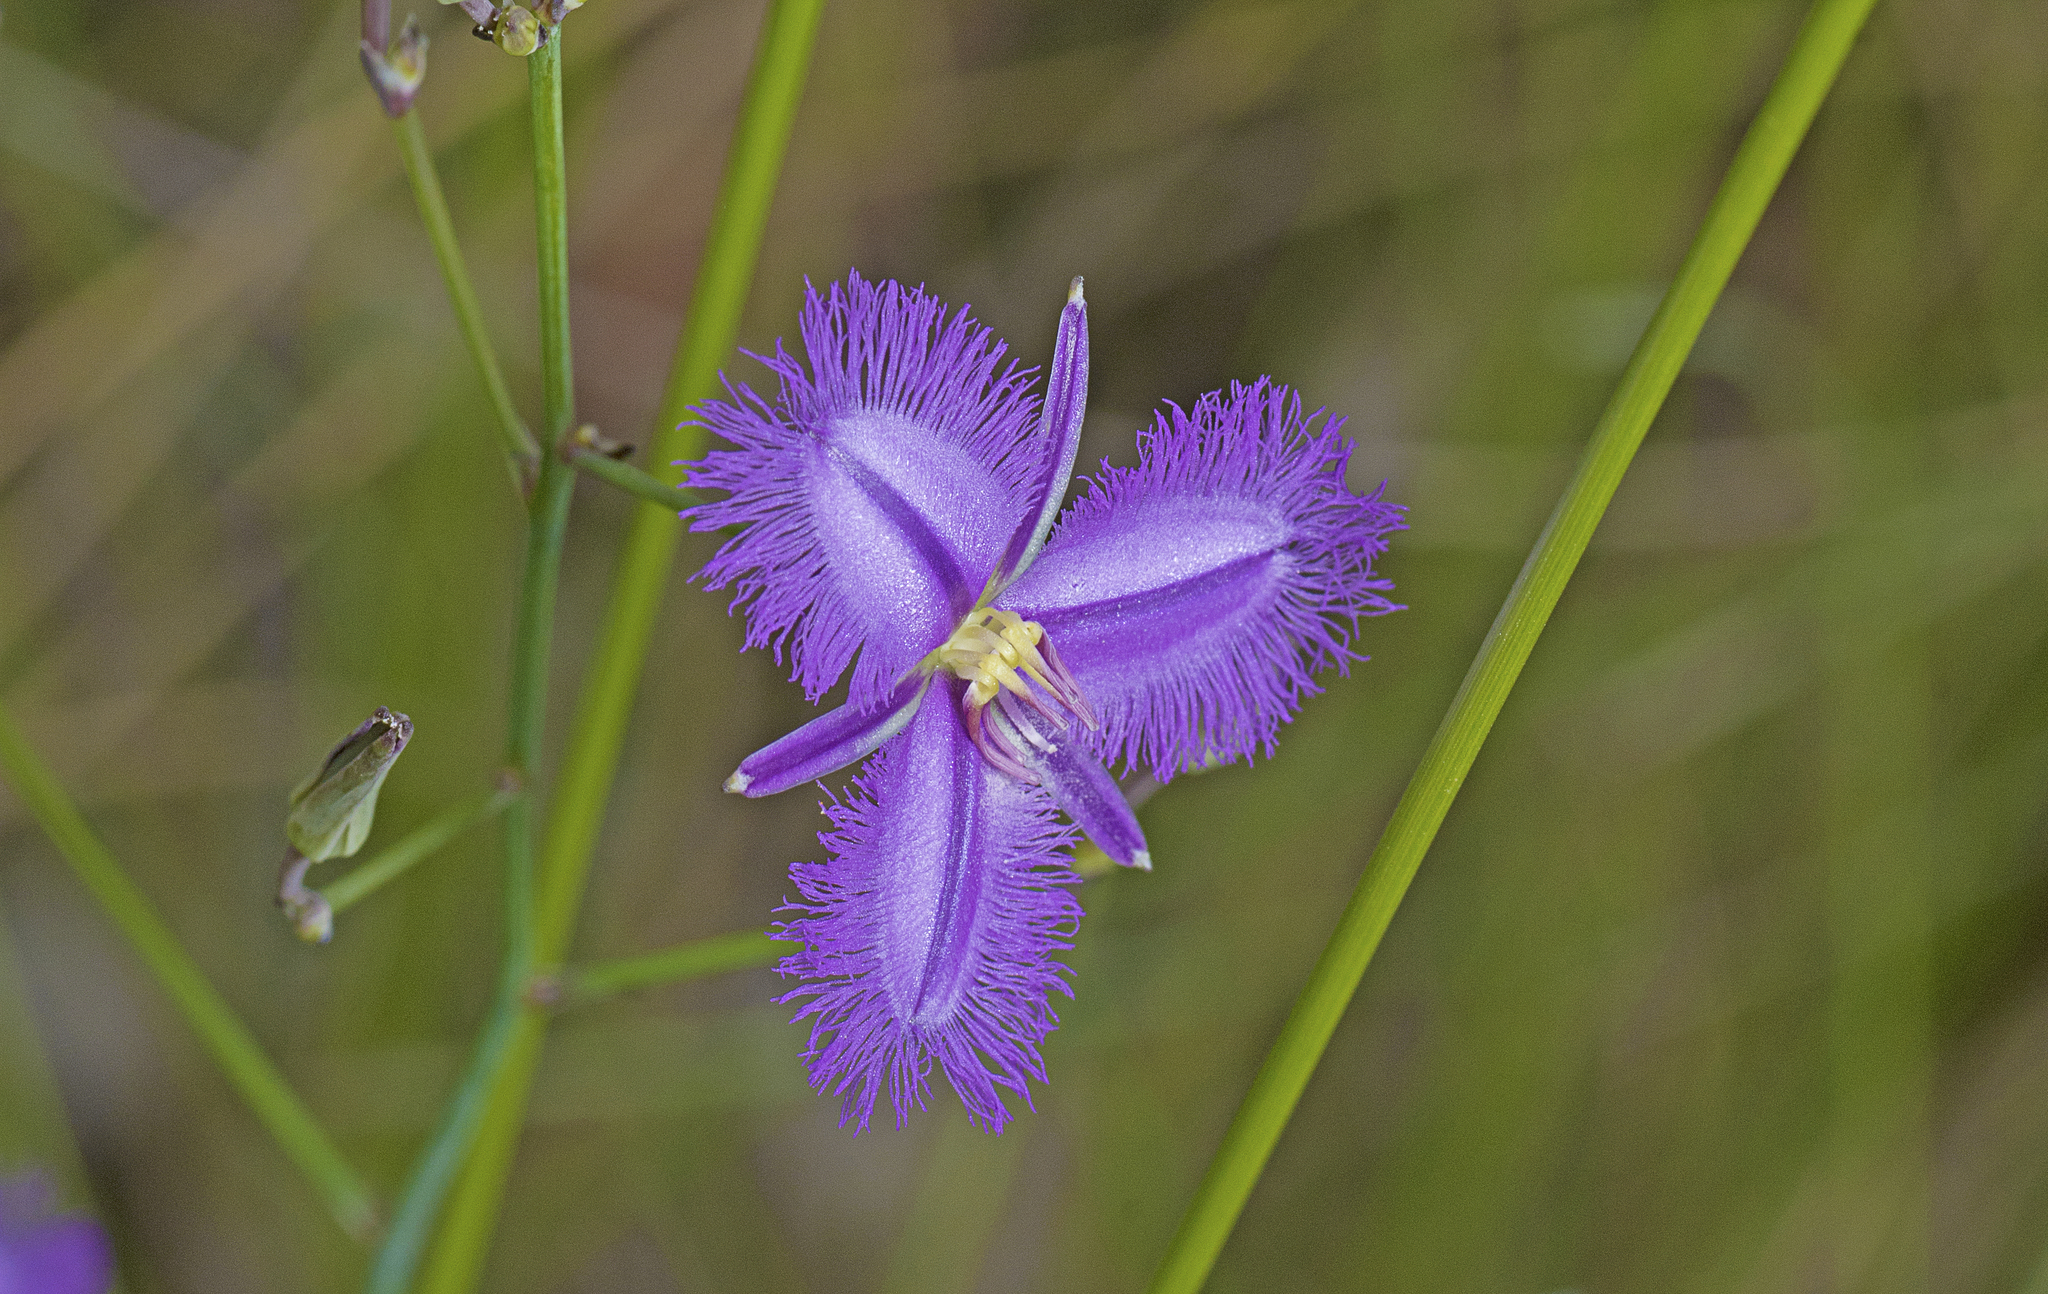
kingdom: Plantae
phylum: Tracheophyta
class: Liliopsida
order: Asparagales
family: Asparagaceae
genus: Thysanotus
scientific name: Thysanotus tuberosus
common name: Common fringed-lily
